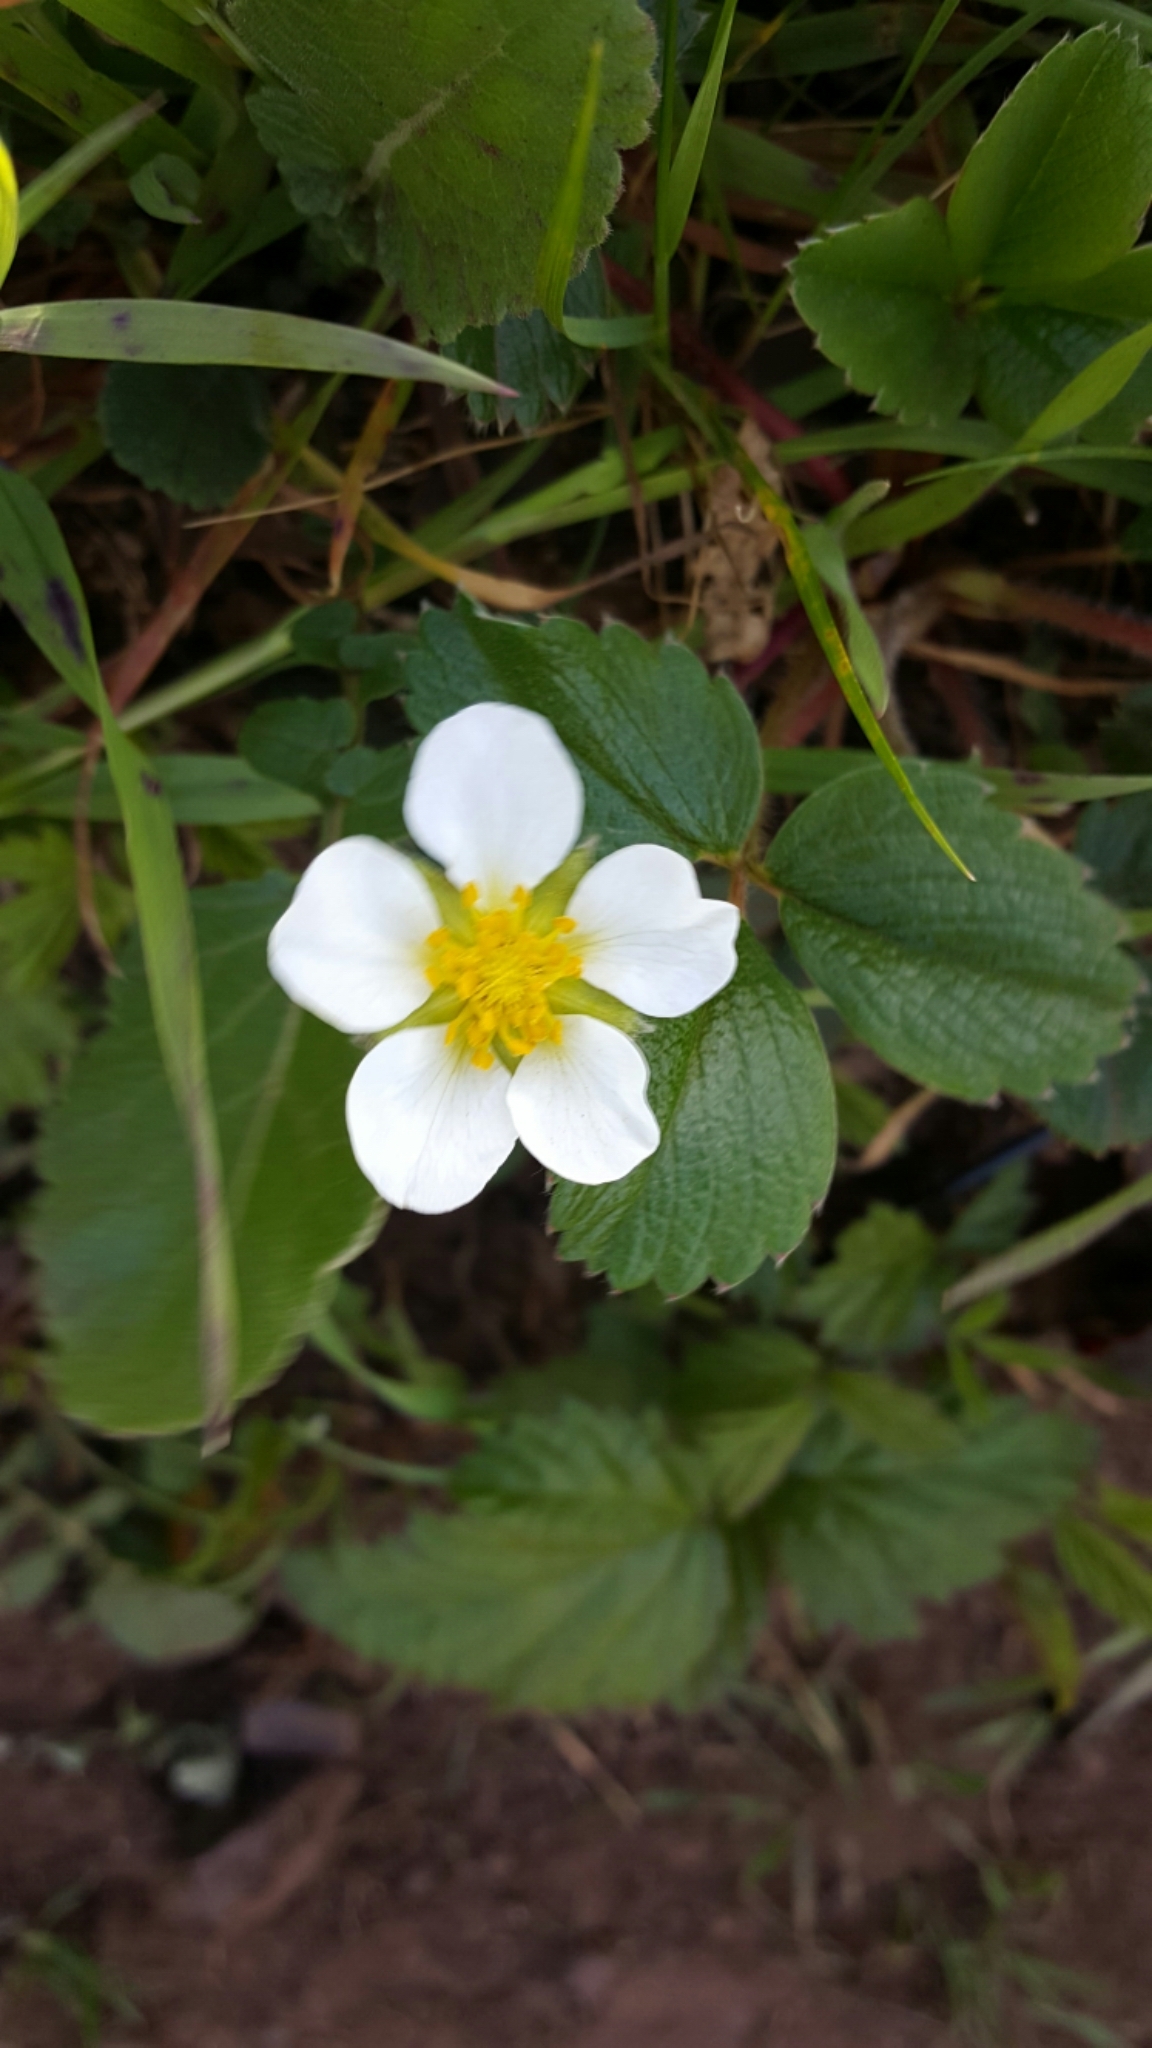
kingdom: Plantae
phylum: Tracheophyta
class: Magnoliopsida
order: Rosales
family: Rosaceae
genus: Fragaria
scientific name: Fragaria chiloensis
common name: Beach strawberry
